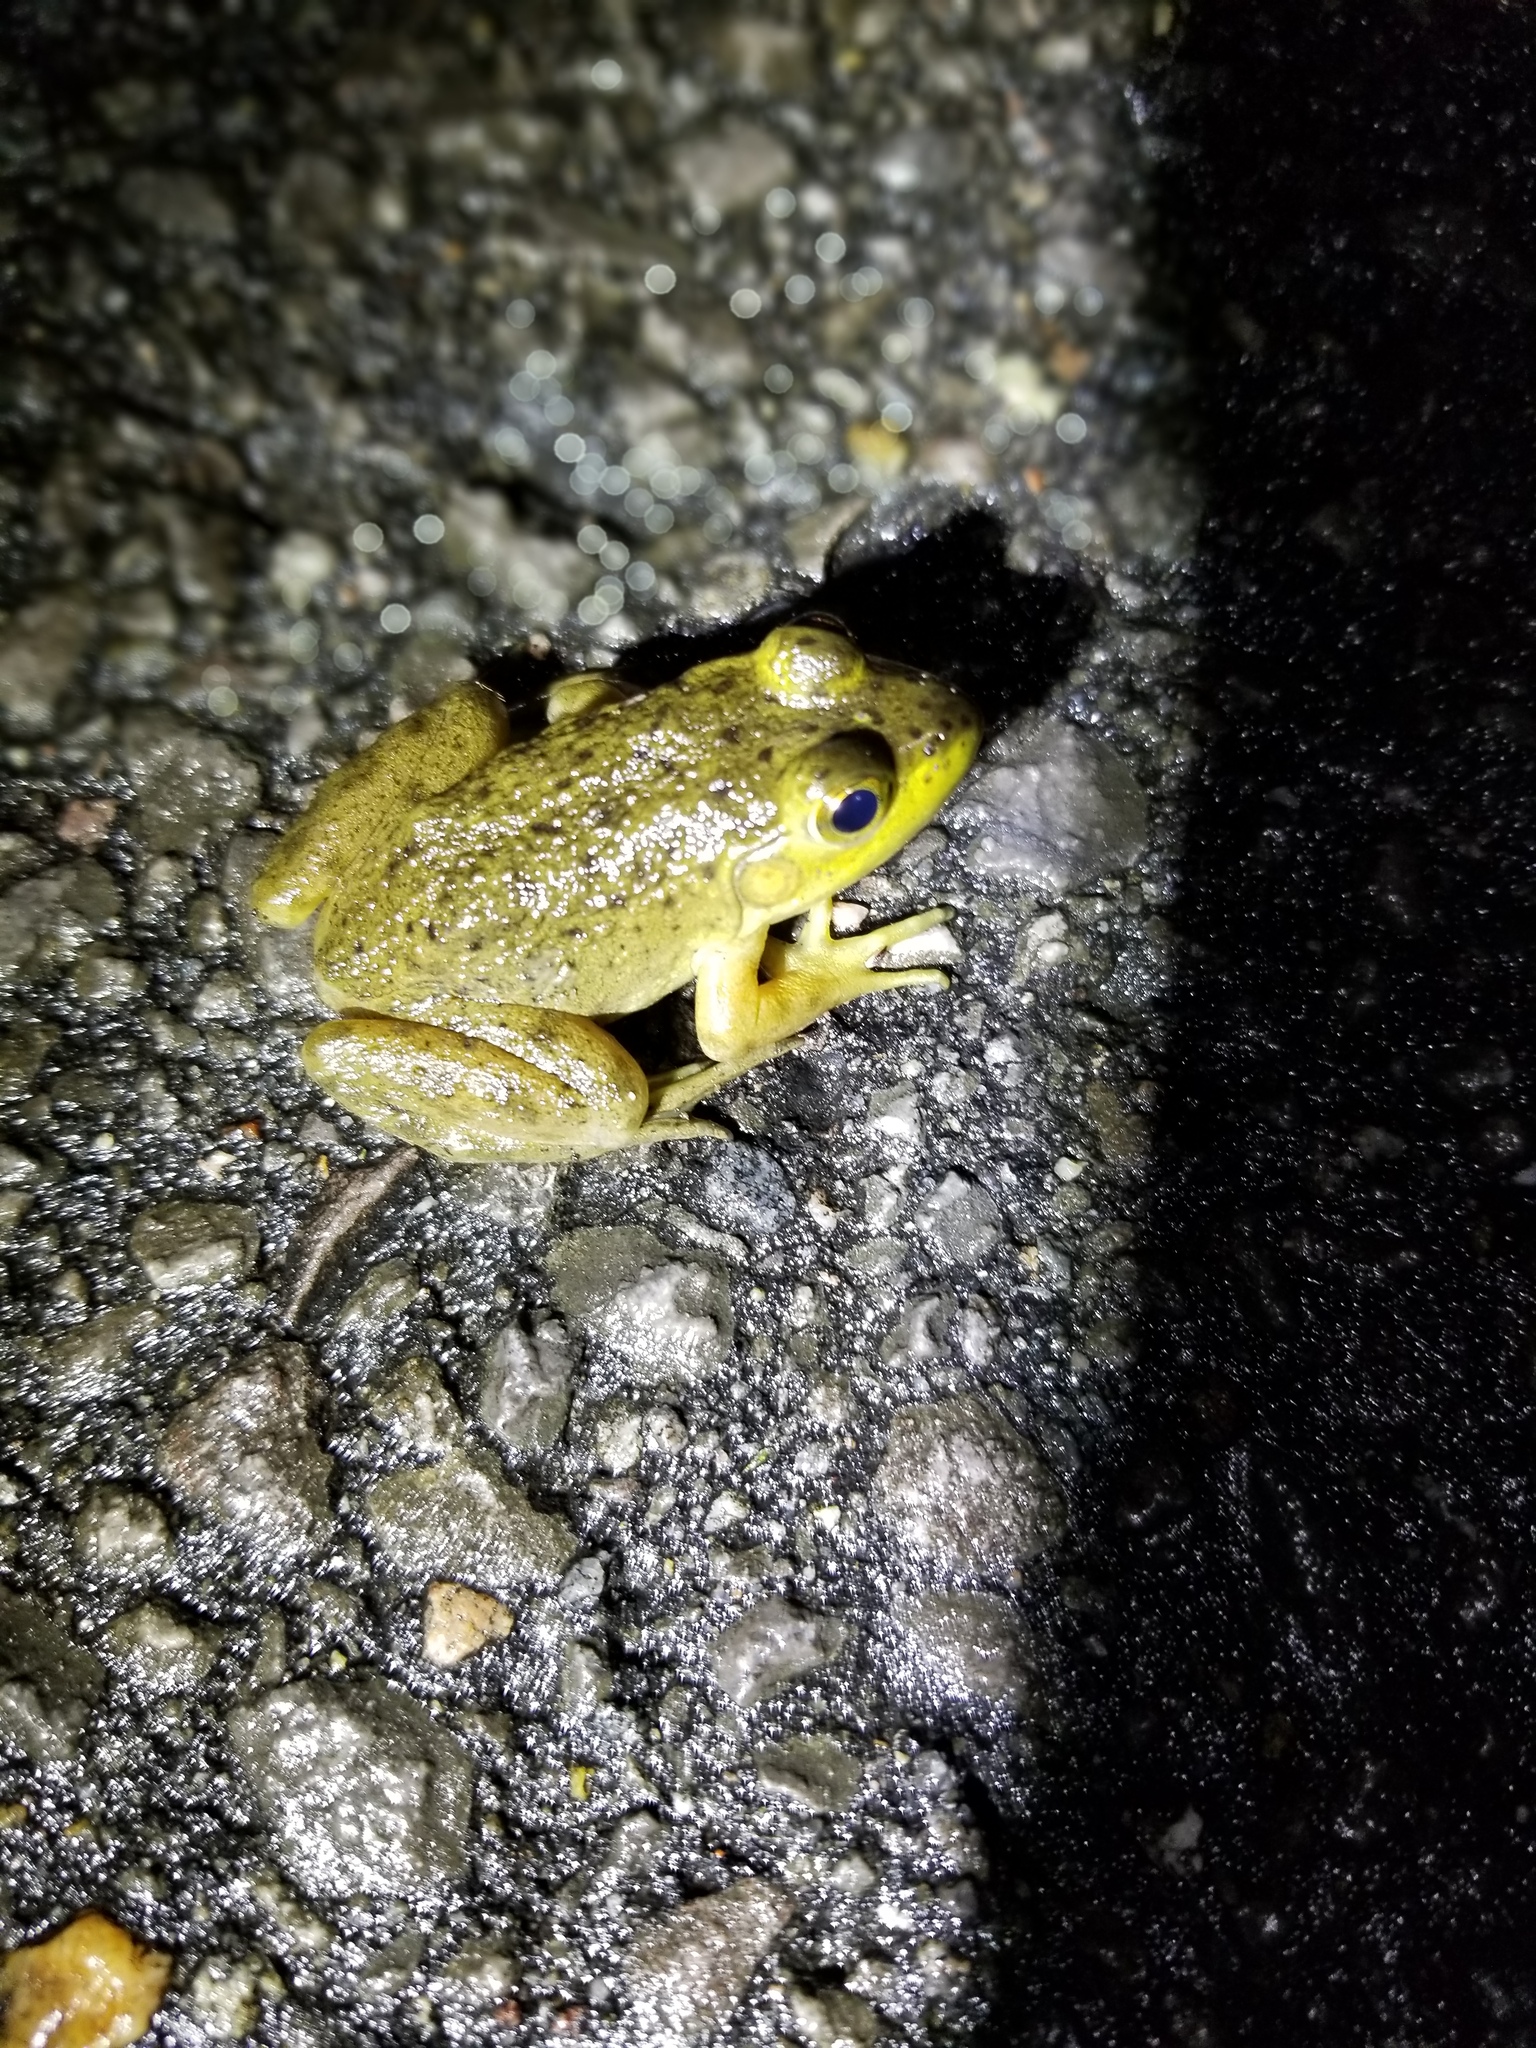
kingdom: Animalia
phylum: Chordata
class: Amphibia
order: Anura
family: Ranidae
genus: Lithobates
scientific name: Lithobates catesbeianus
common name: American bullfrog
